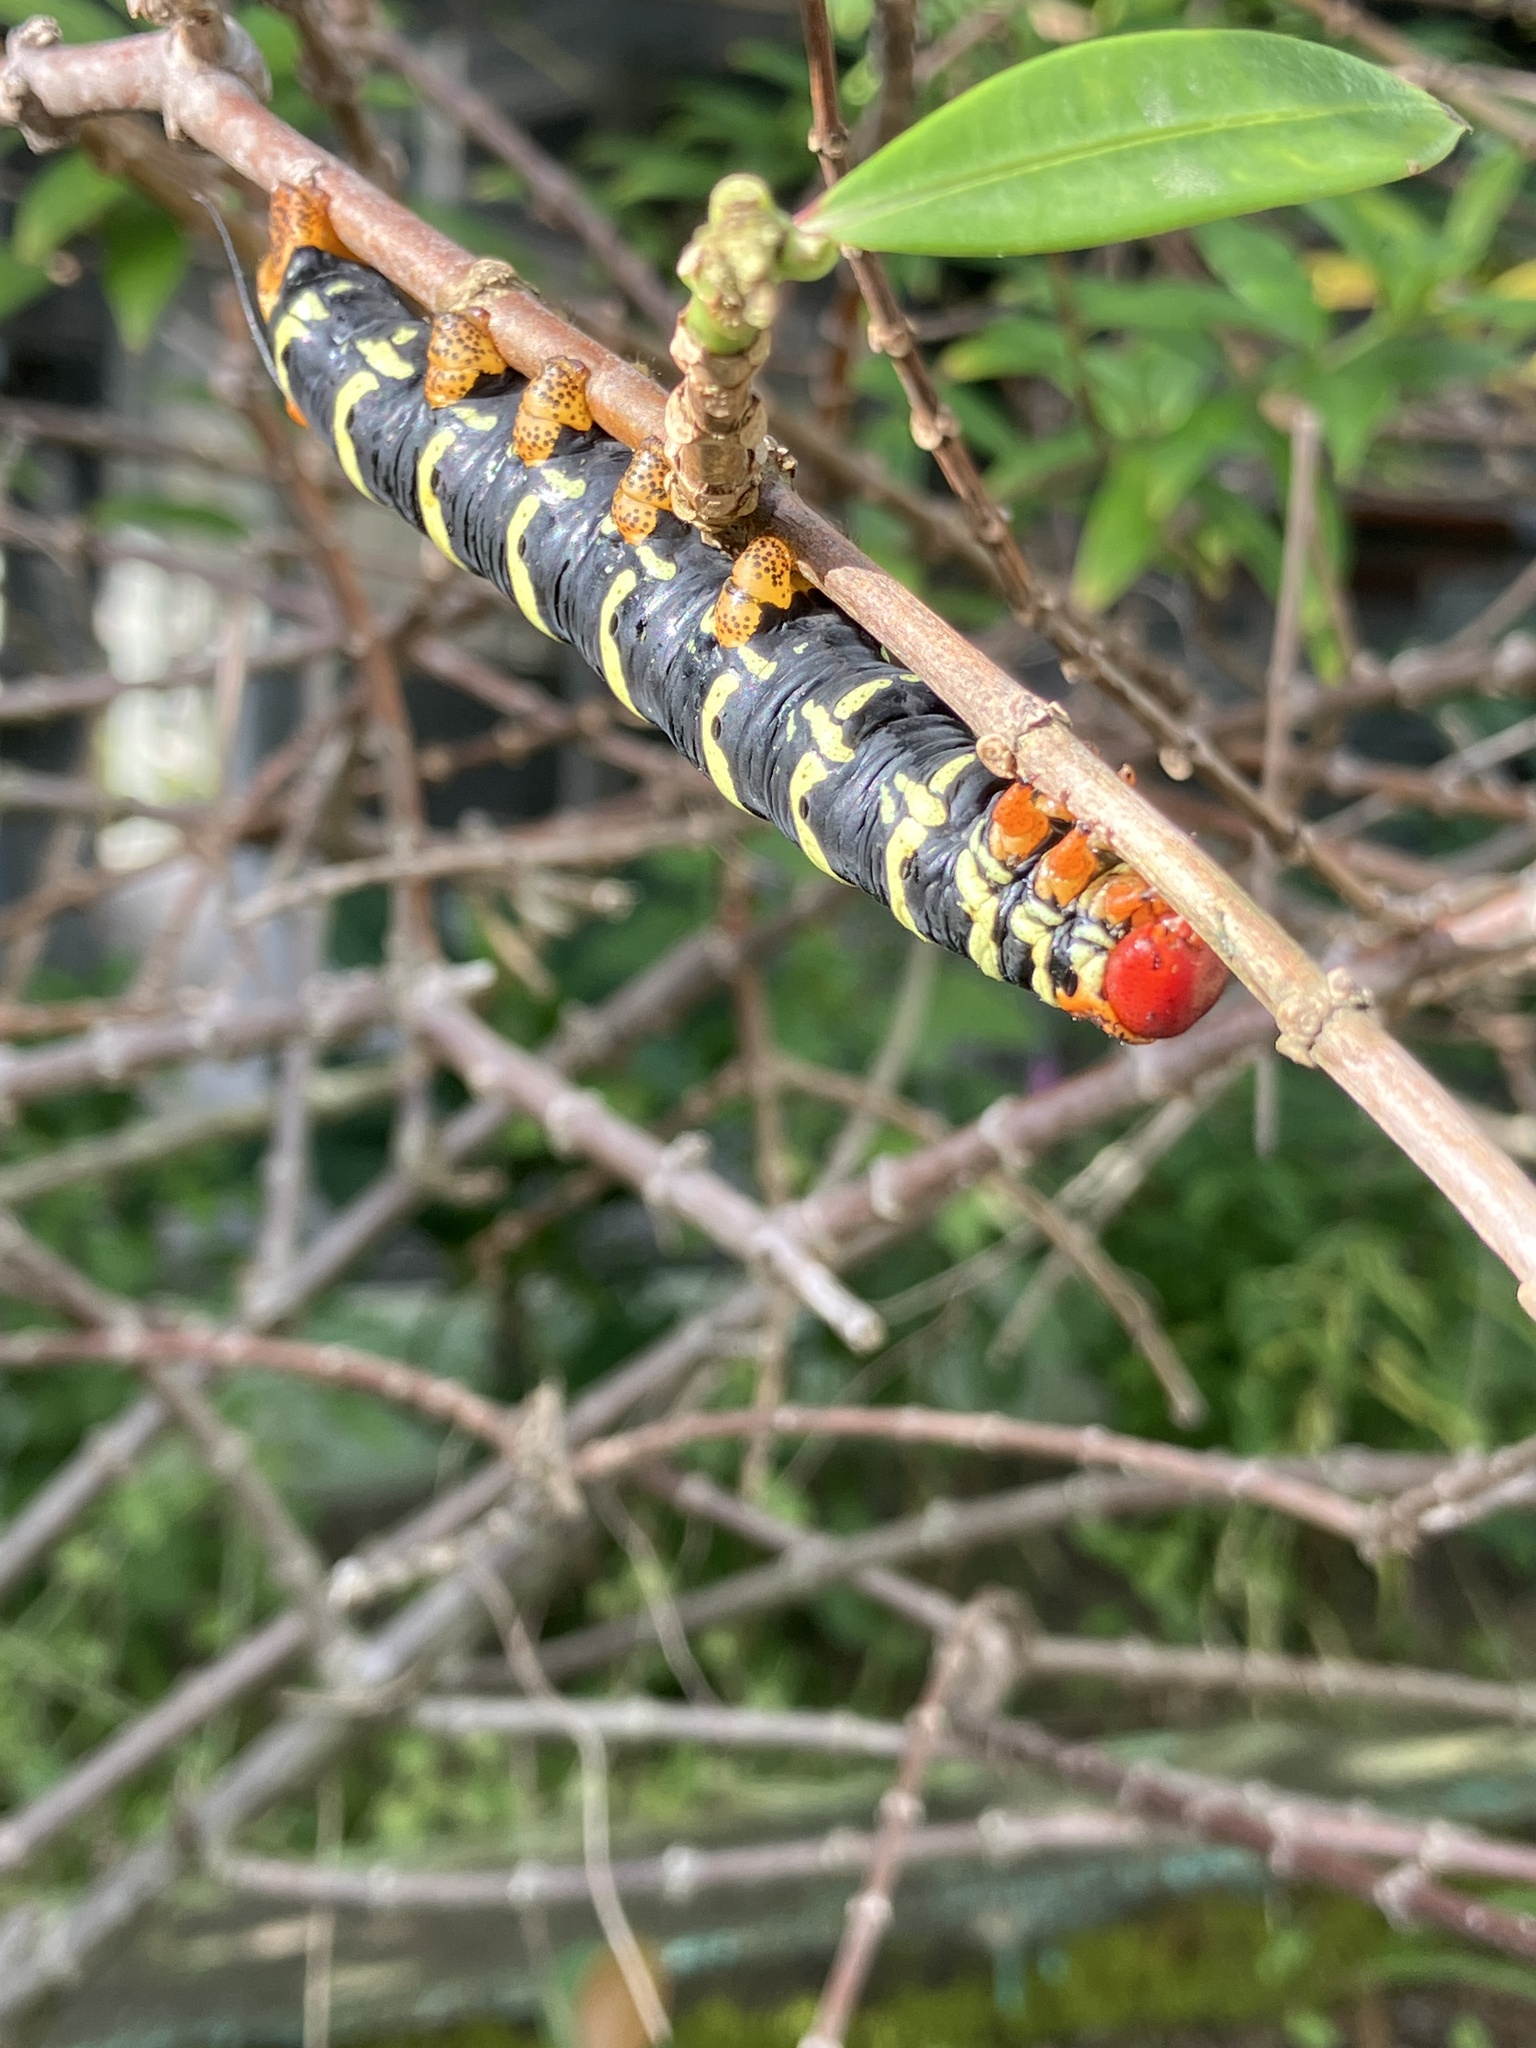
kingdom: Animalia
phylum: Arthropoda
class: Insecta
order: Lepidoptera
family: Sphingidae
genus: Pseudosphinx
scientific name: Pseudosphinx tetrio
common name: Tetrio sphinx
